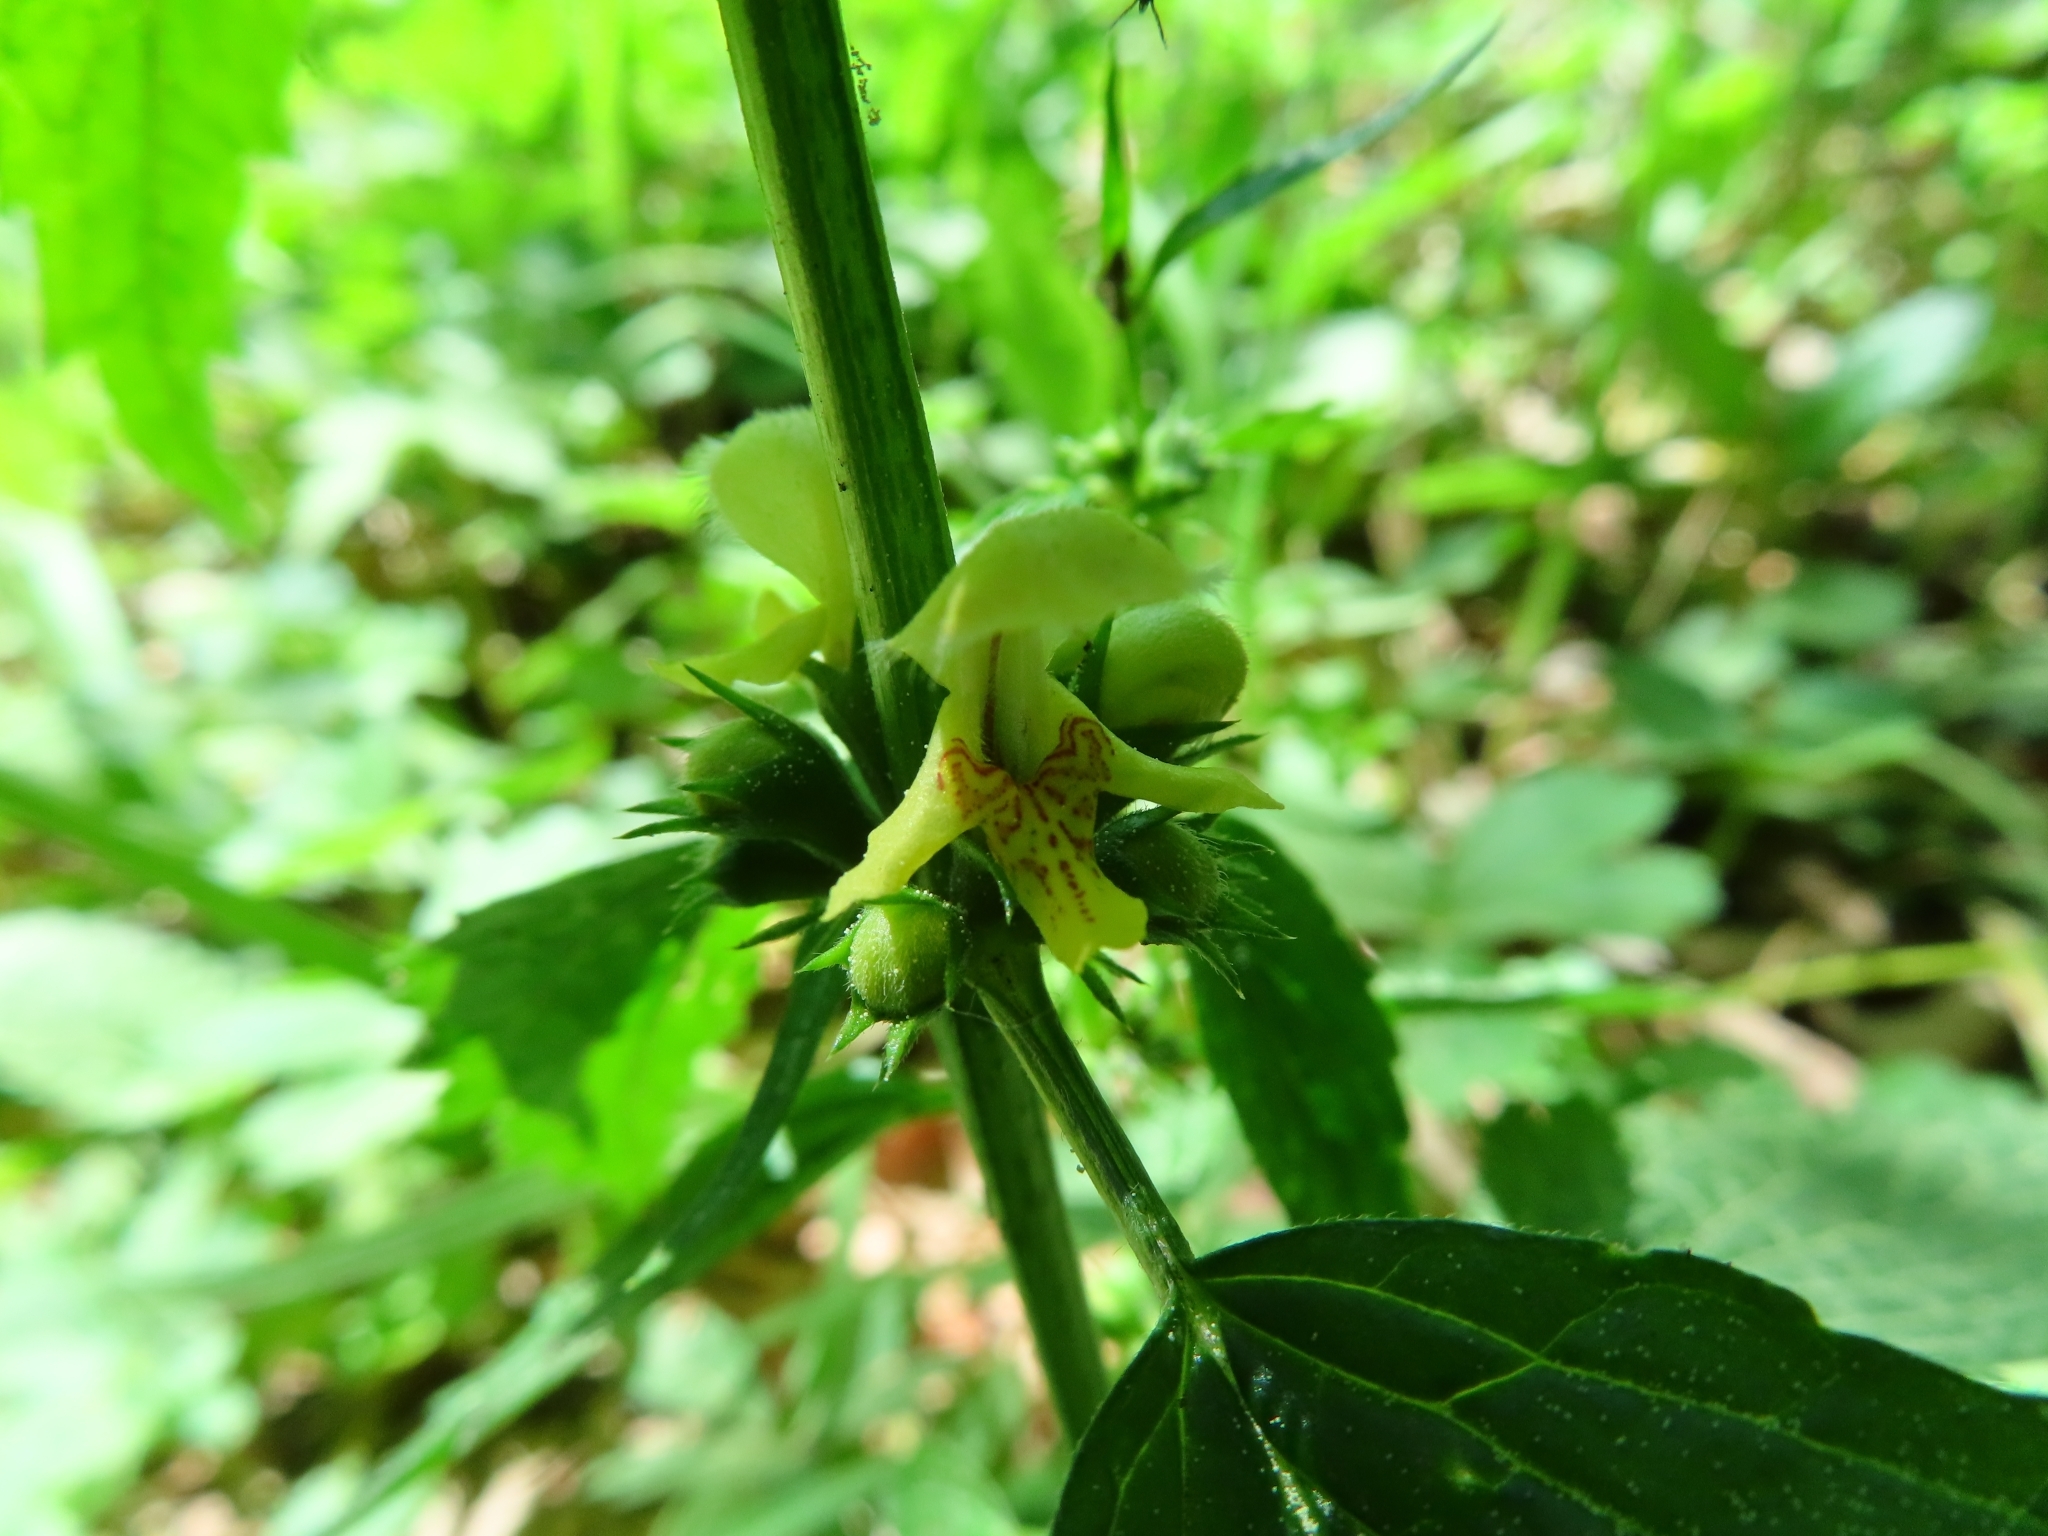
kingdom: Plantae
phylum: Tracheophyta
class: Magnoliopsida
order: Lamiales
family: Lamiaceae
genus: Lamium
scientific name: Lamium galeobdolon
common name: Yellow archangel
